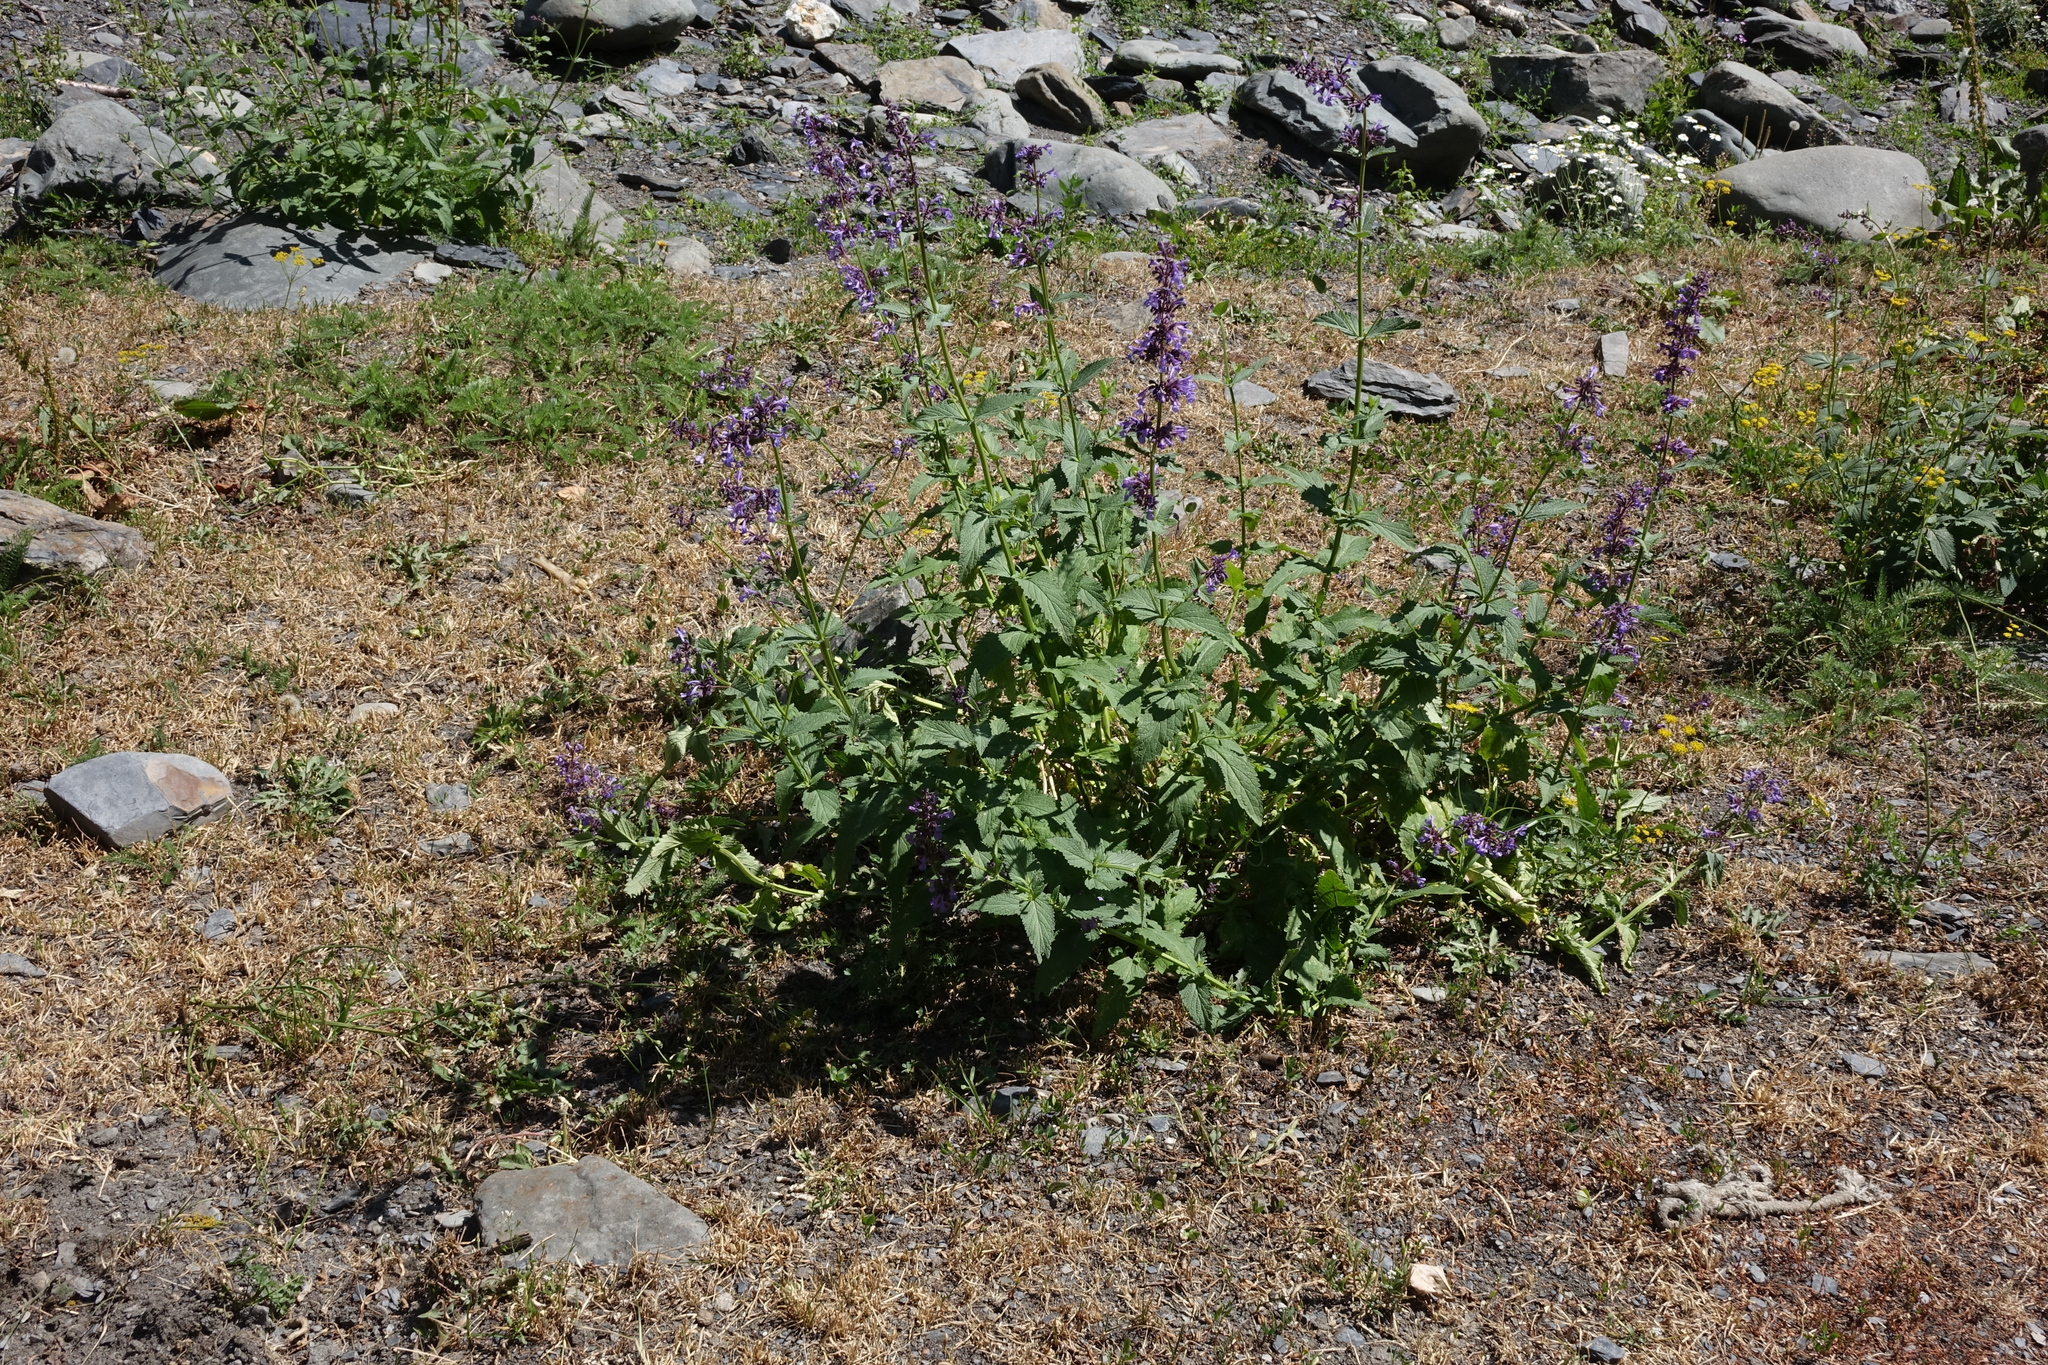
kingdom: Plantae
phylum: Tracheophyta
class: Magnoliopsida
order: Lamiales
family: Lamiaceae
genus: Nepeta
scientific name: Nepeta grandiflora
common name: Caucasus catmint
